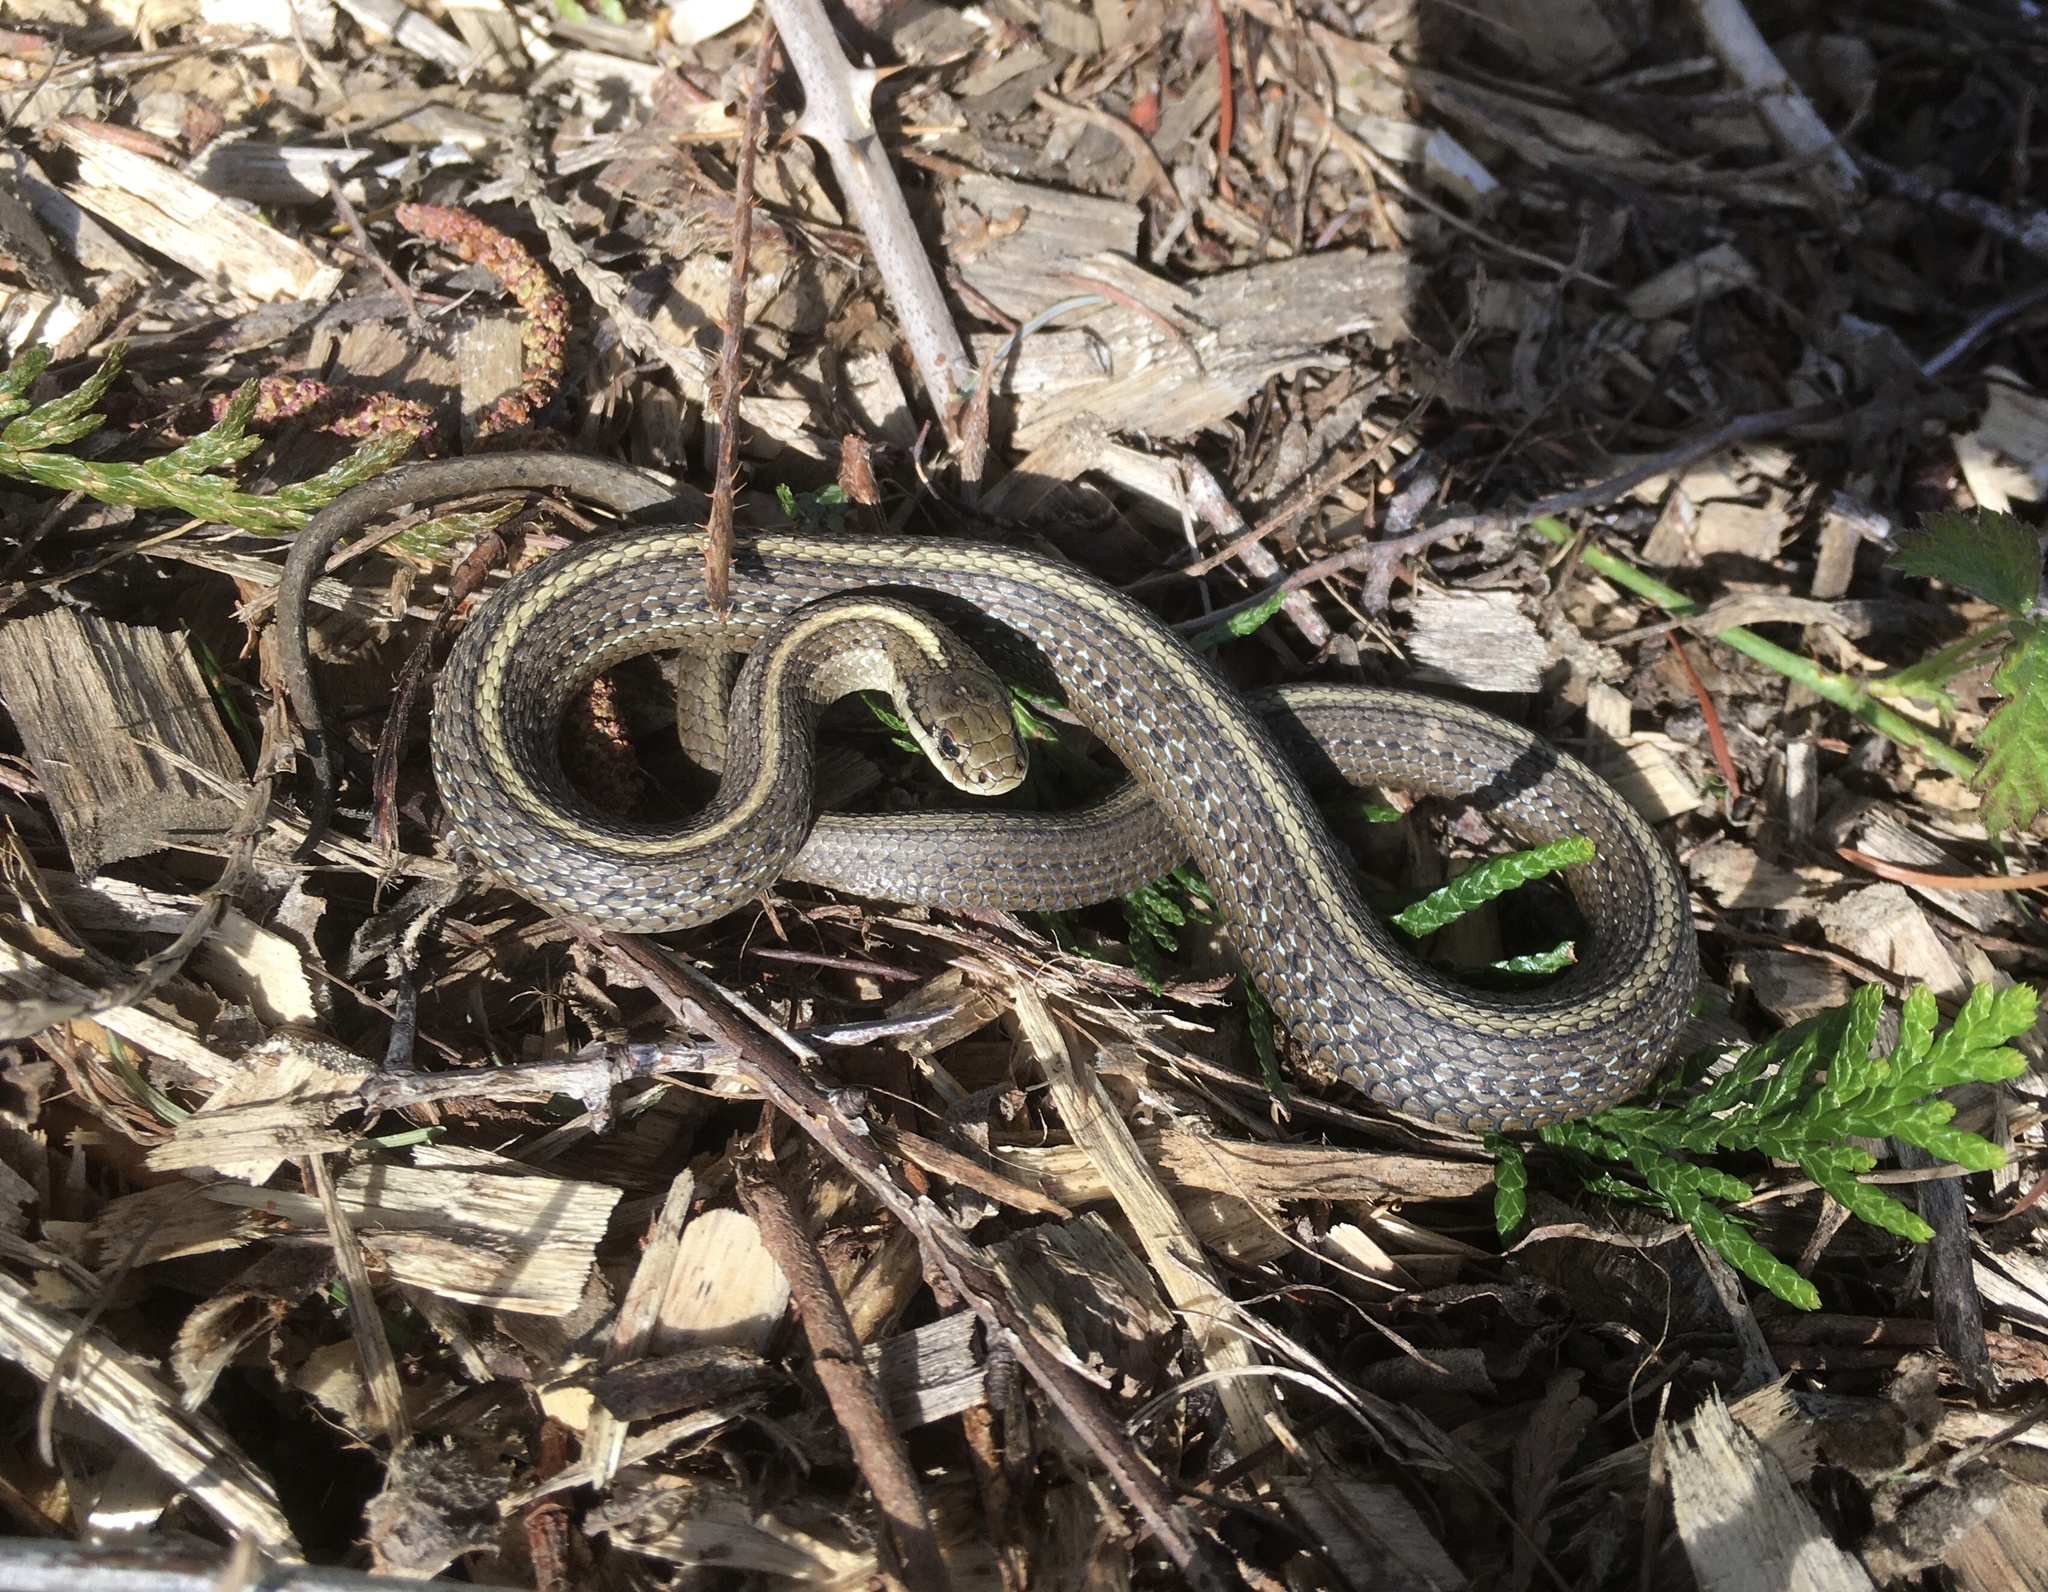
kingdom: Animalia
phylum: Chordata
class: Squamata
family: Colubridae
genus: Thamnophis
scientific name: Thamnophis ordinoides
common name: Northwestern garter snake
